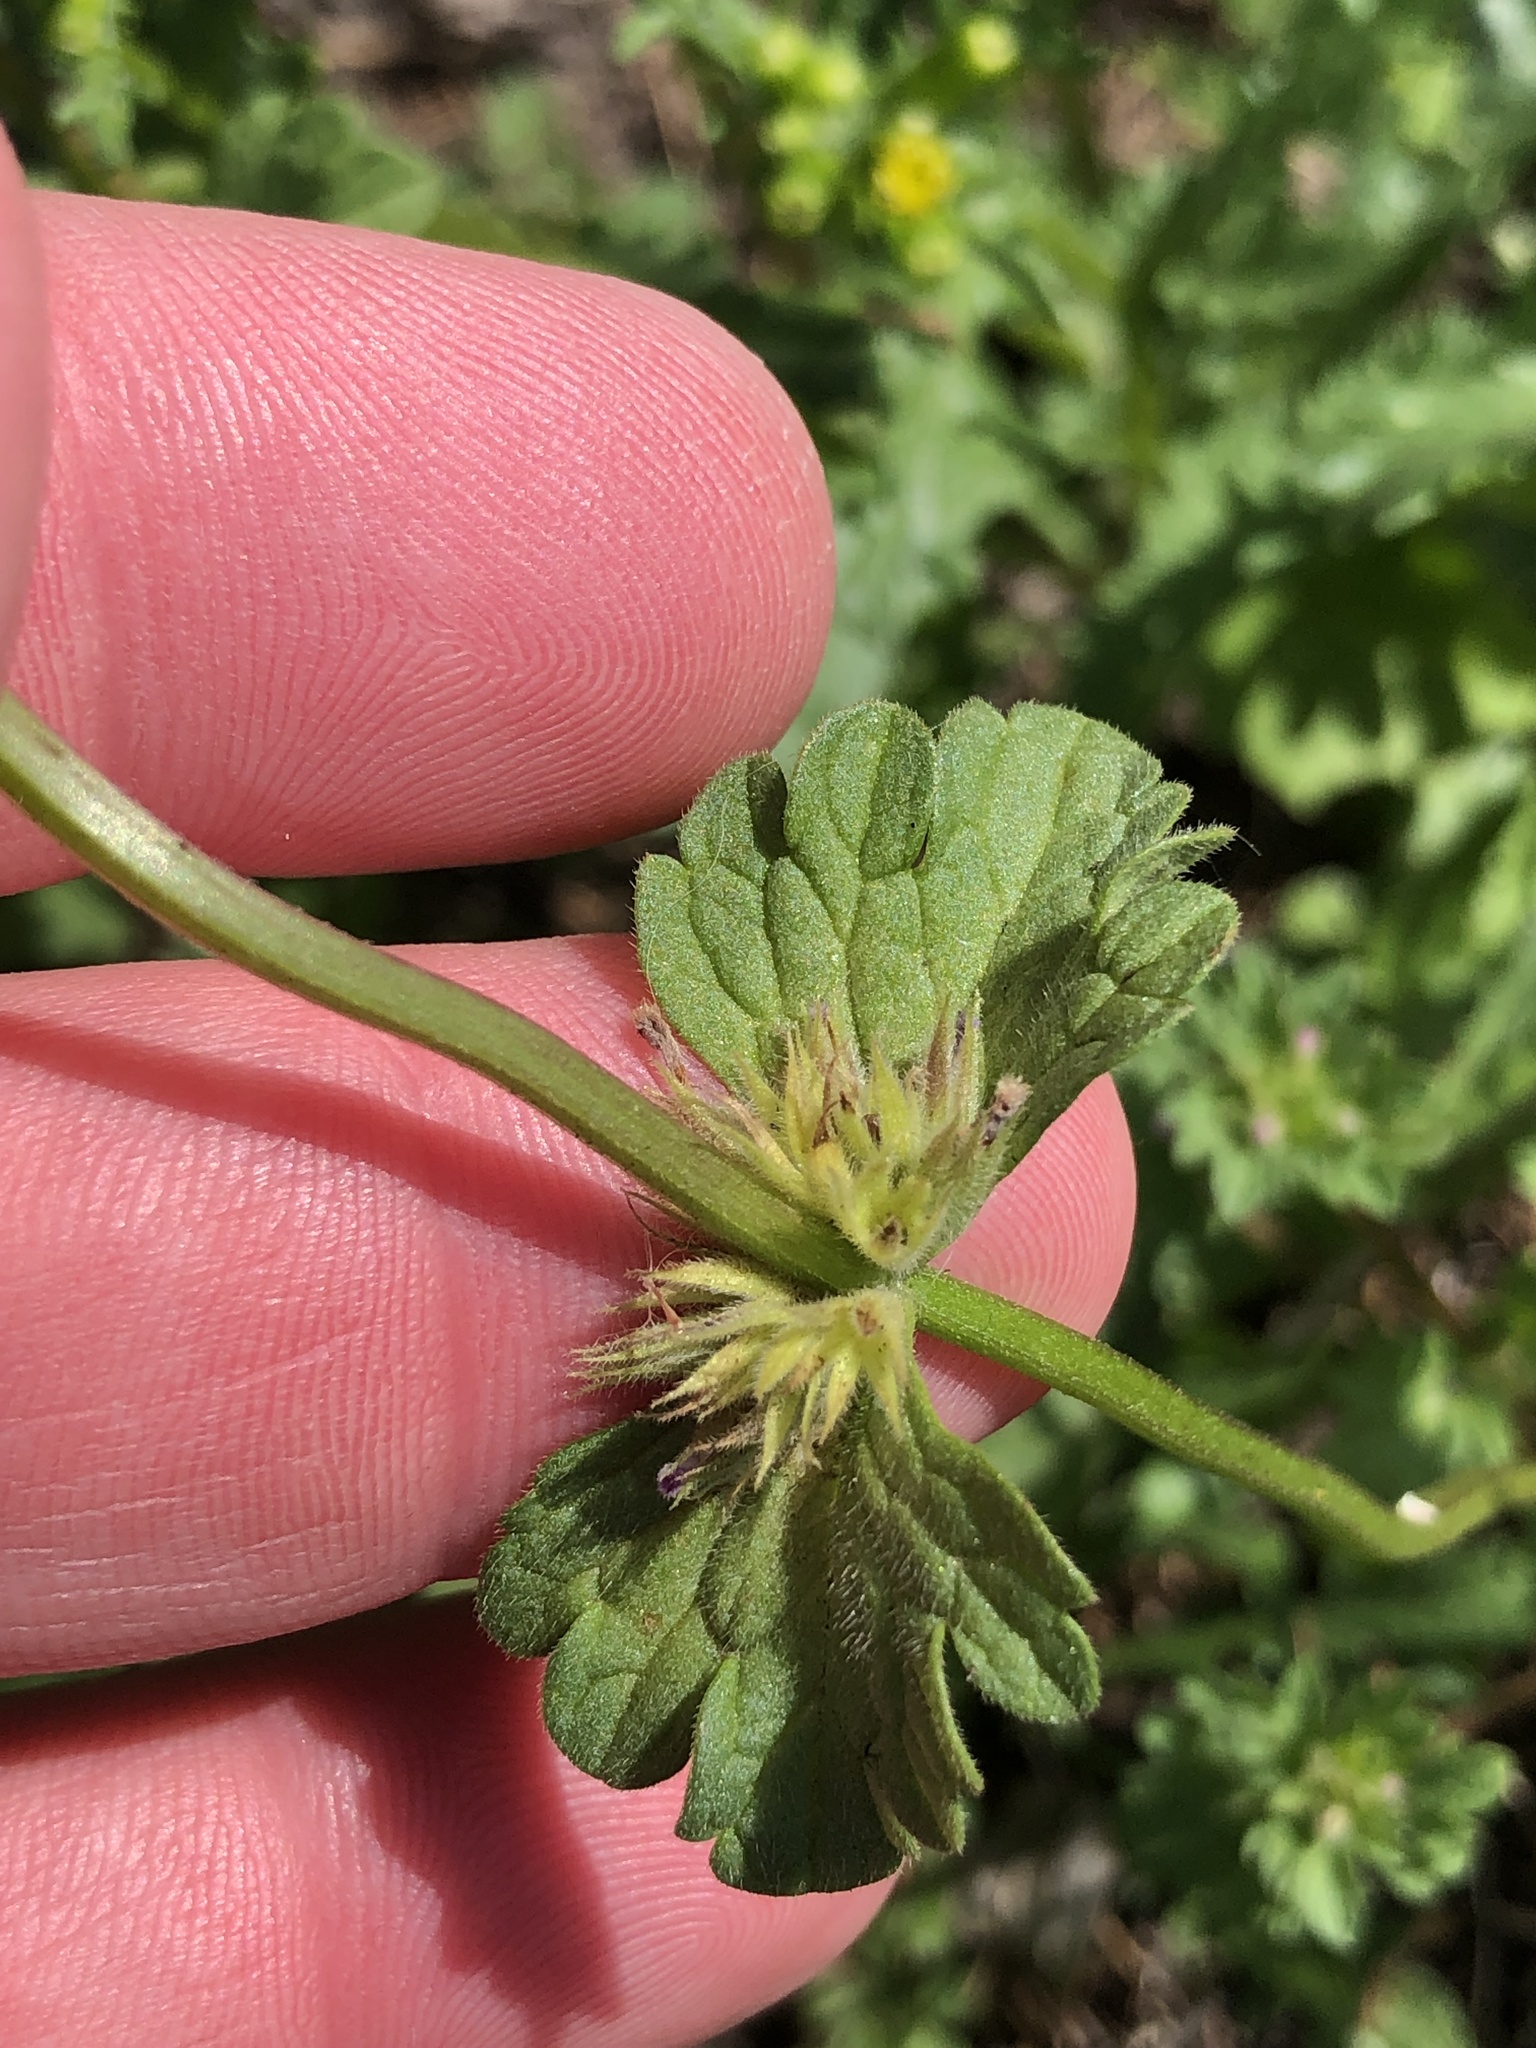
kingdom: Plantae
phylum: Tracheophyta
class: Magnoliopsida
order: Lamiales
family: Lamiaceae
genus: Lamium
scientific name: Lamium amplexicaule
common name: Henbit dead-nettle
